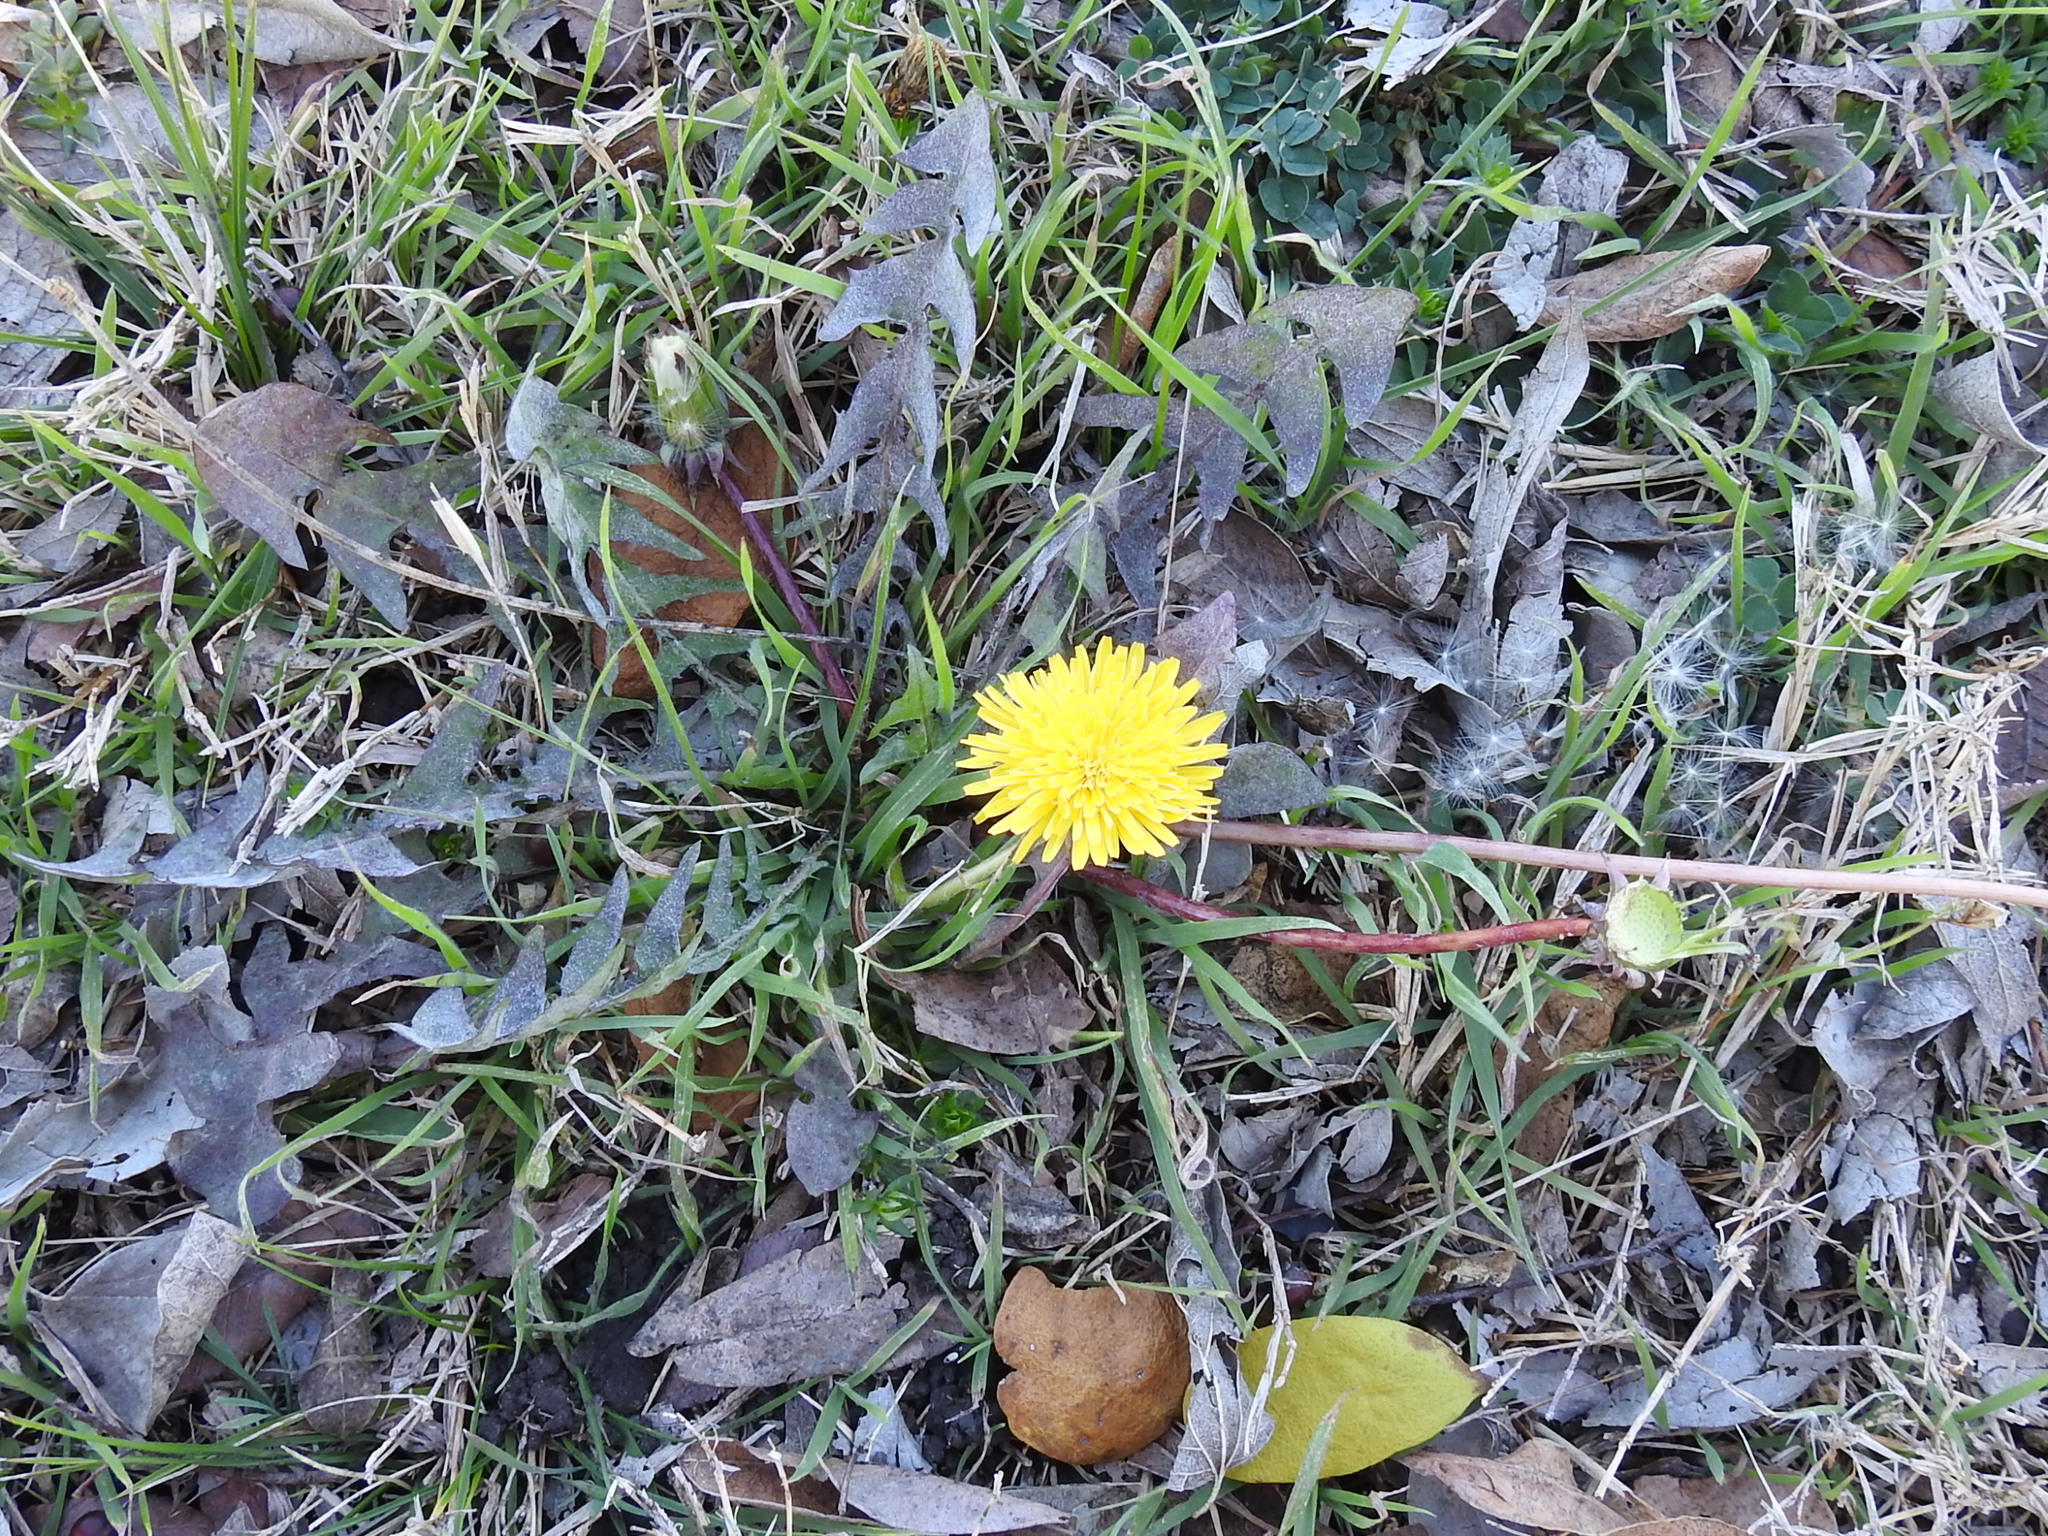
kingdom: Plantae
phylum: Tracheophyta
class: Magnoliopsida
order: Asterales
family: Asteraceae
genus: Taraxacum
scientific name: Taraxacum officinale
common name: Common dandelion
